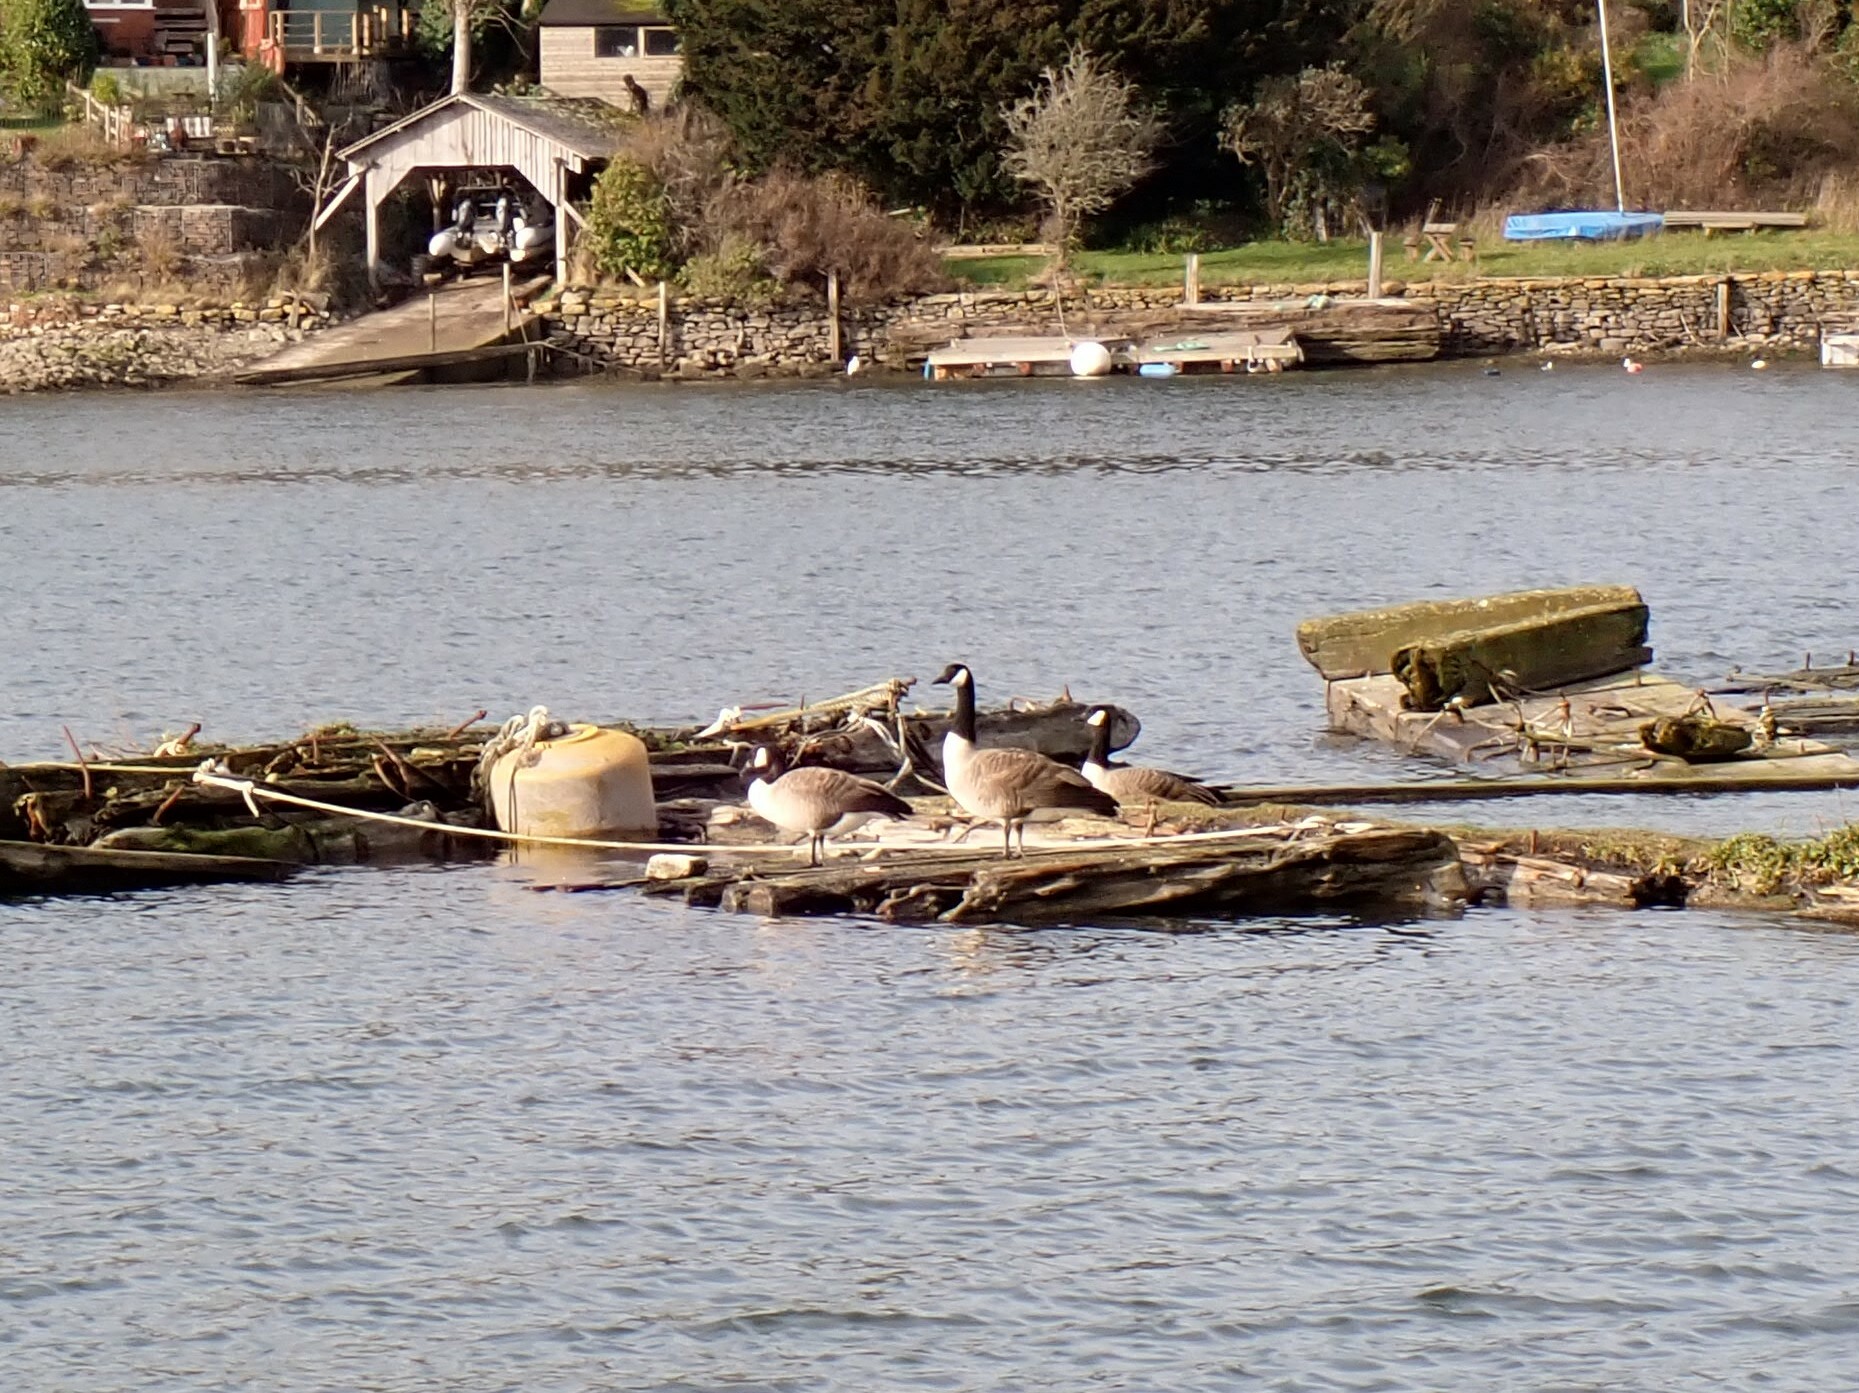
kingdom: Animalia
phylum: Chordata
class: Aves
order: Anseriformes
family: Anatidae
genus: Branta
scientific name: Branta canadensis
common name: Canada goose
